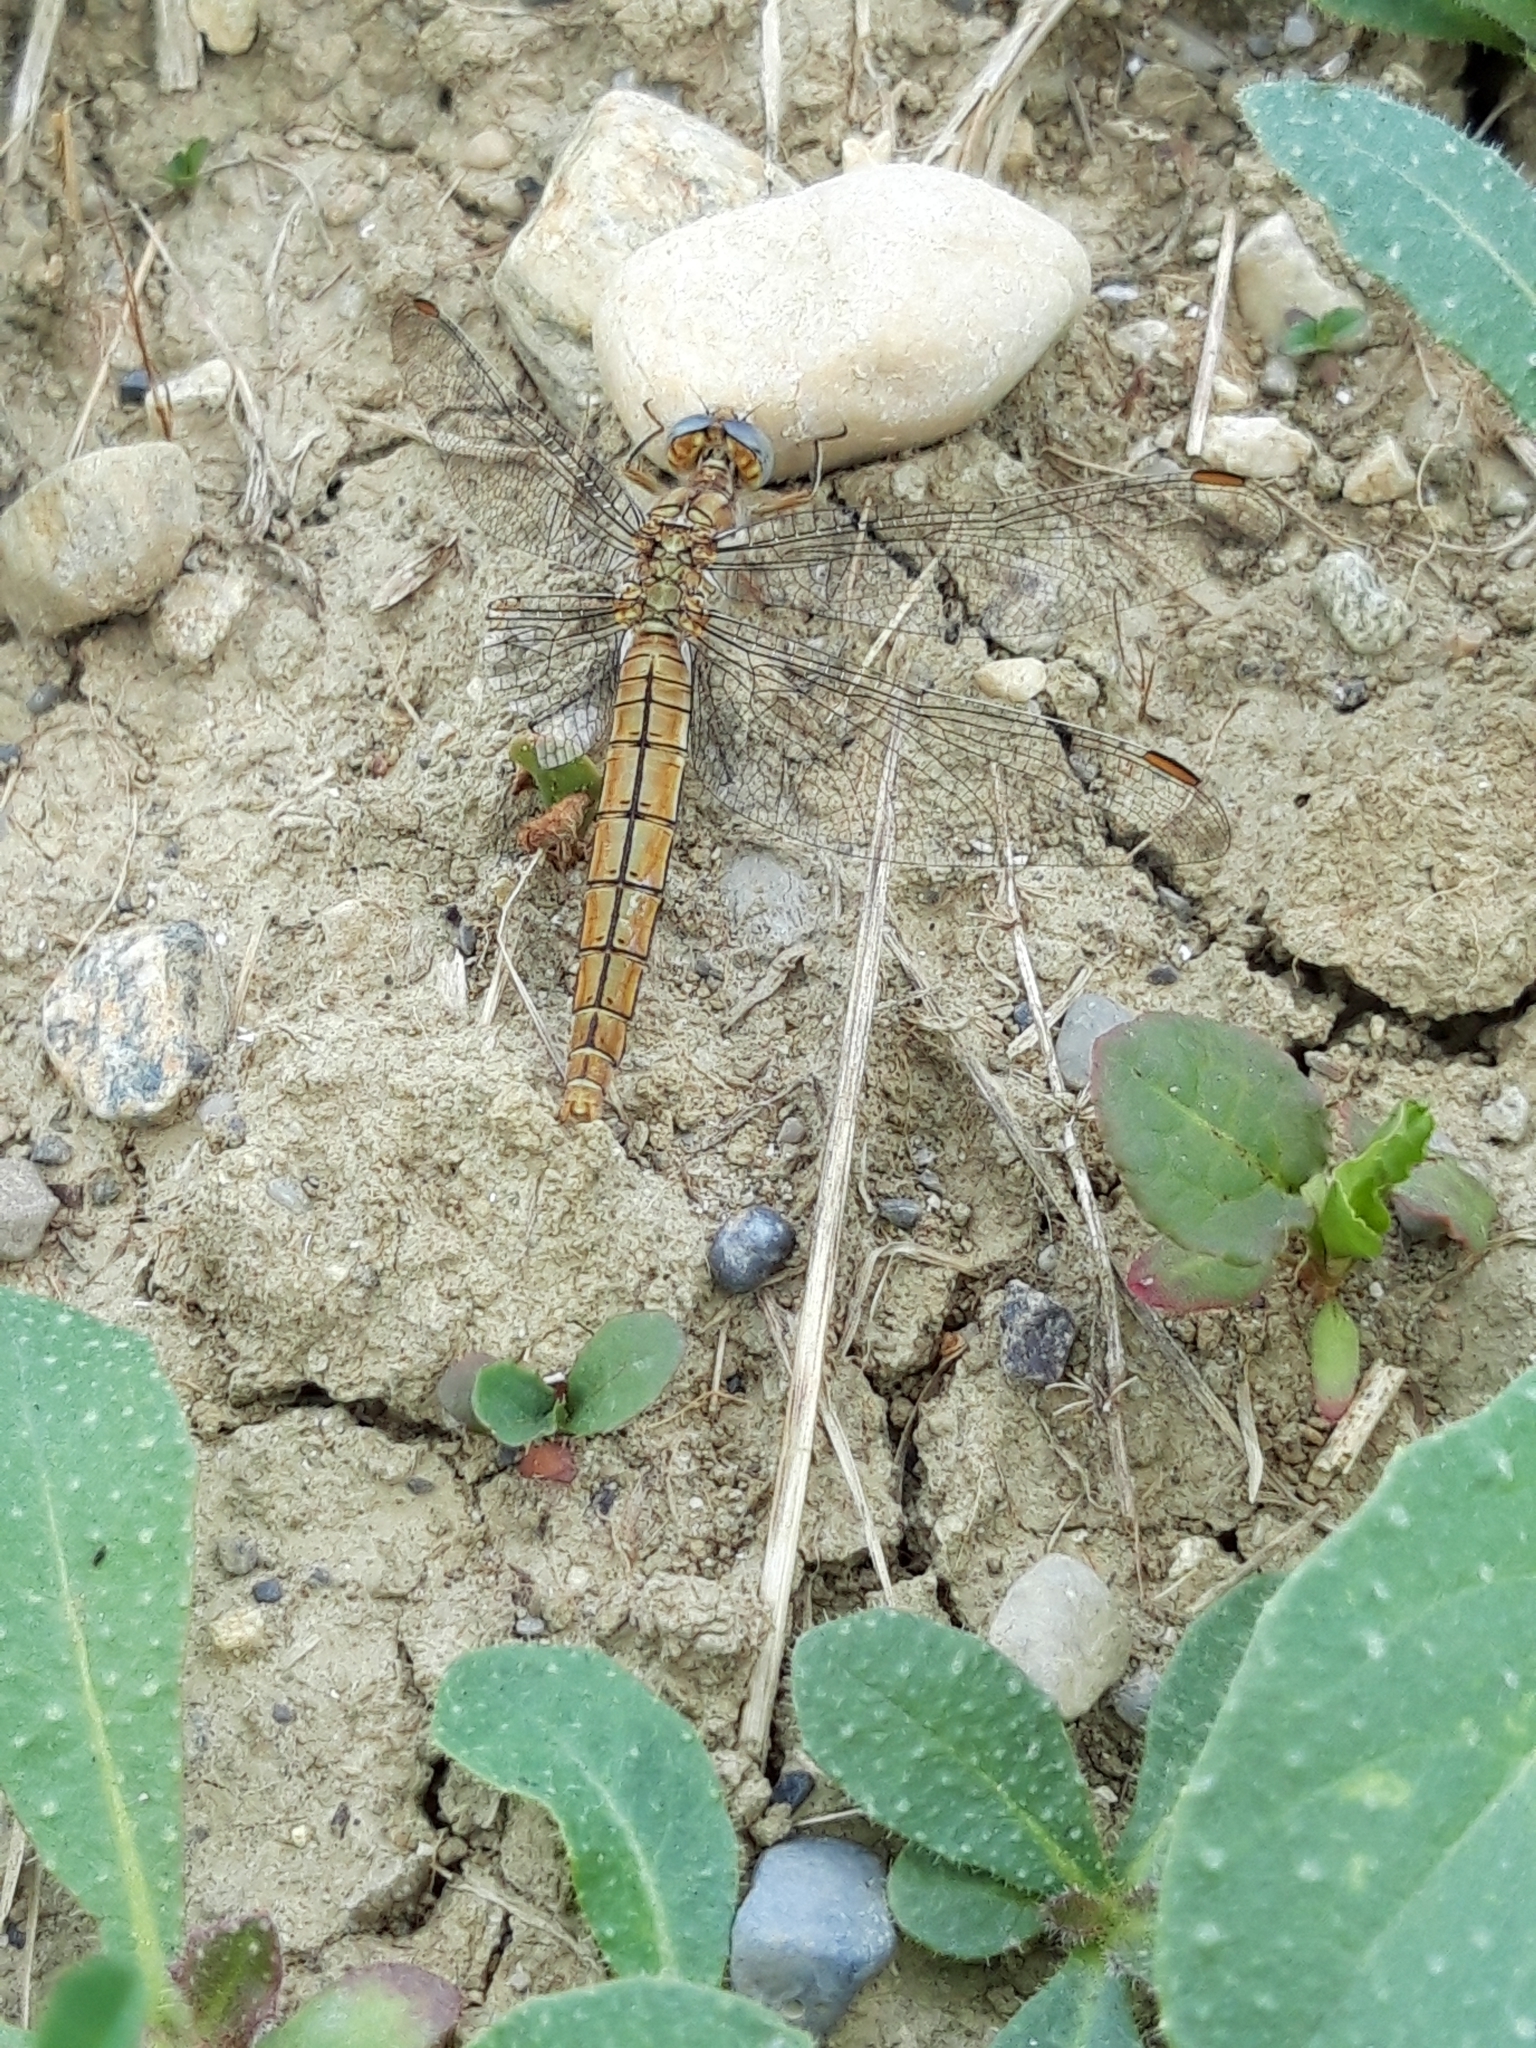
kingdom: Animalia
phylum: Arthropoda
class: Insecta
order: Odonata
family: Libellulidae
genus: Orthetrum
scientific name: Orthetrum brunneum
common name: Southern skimmer
